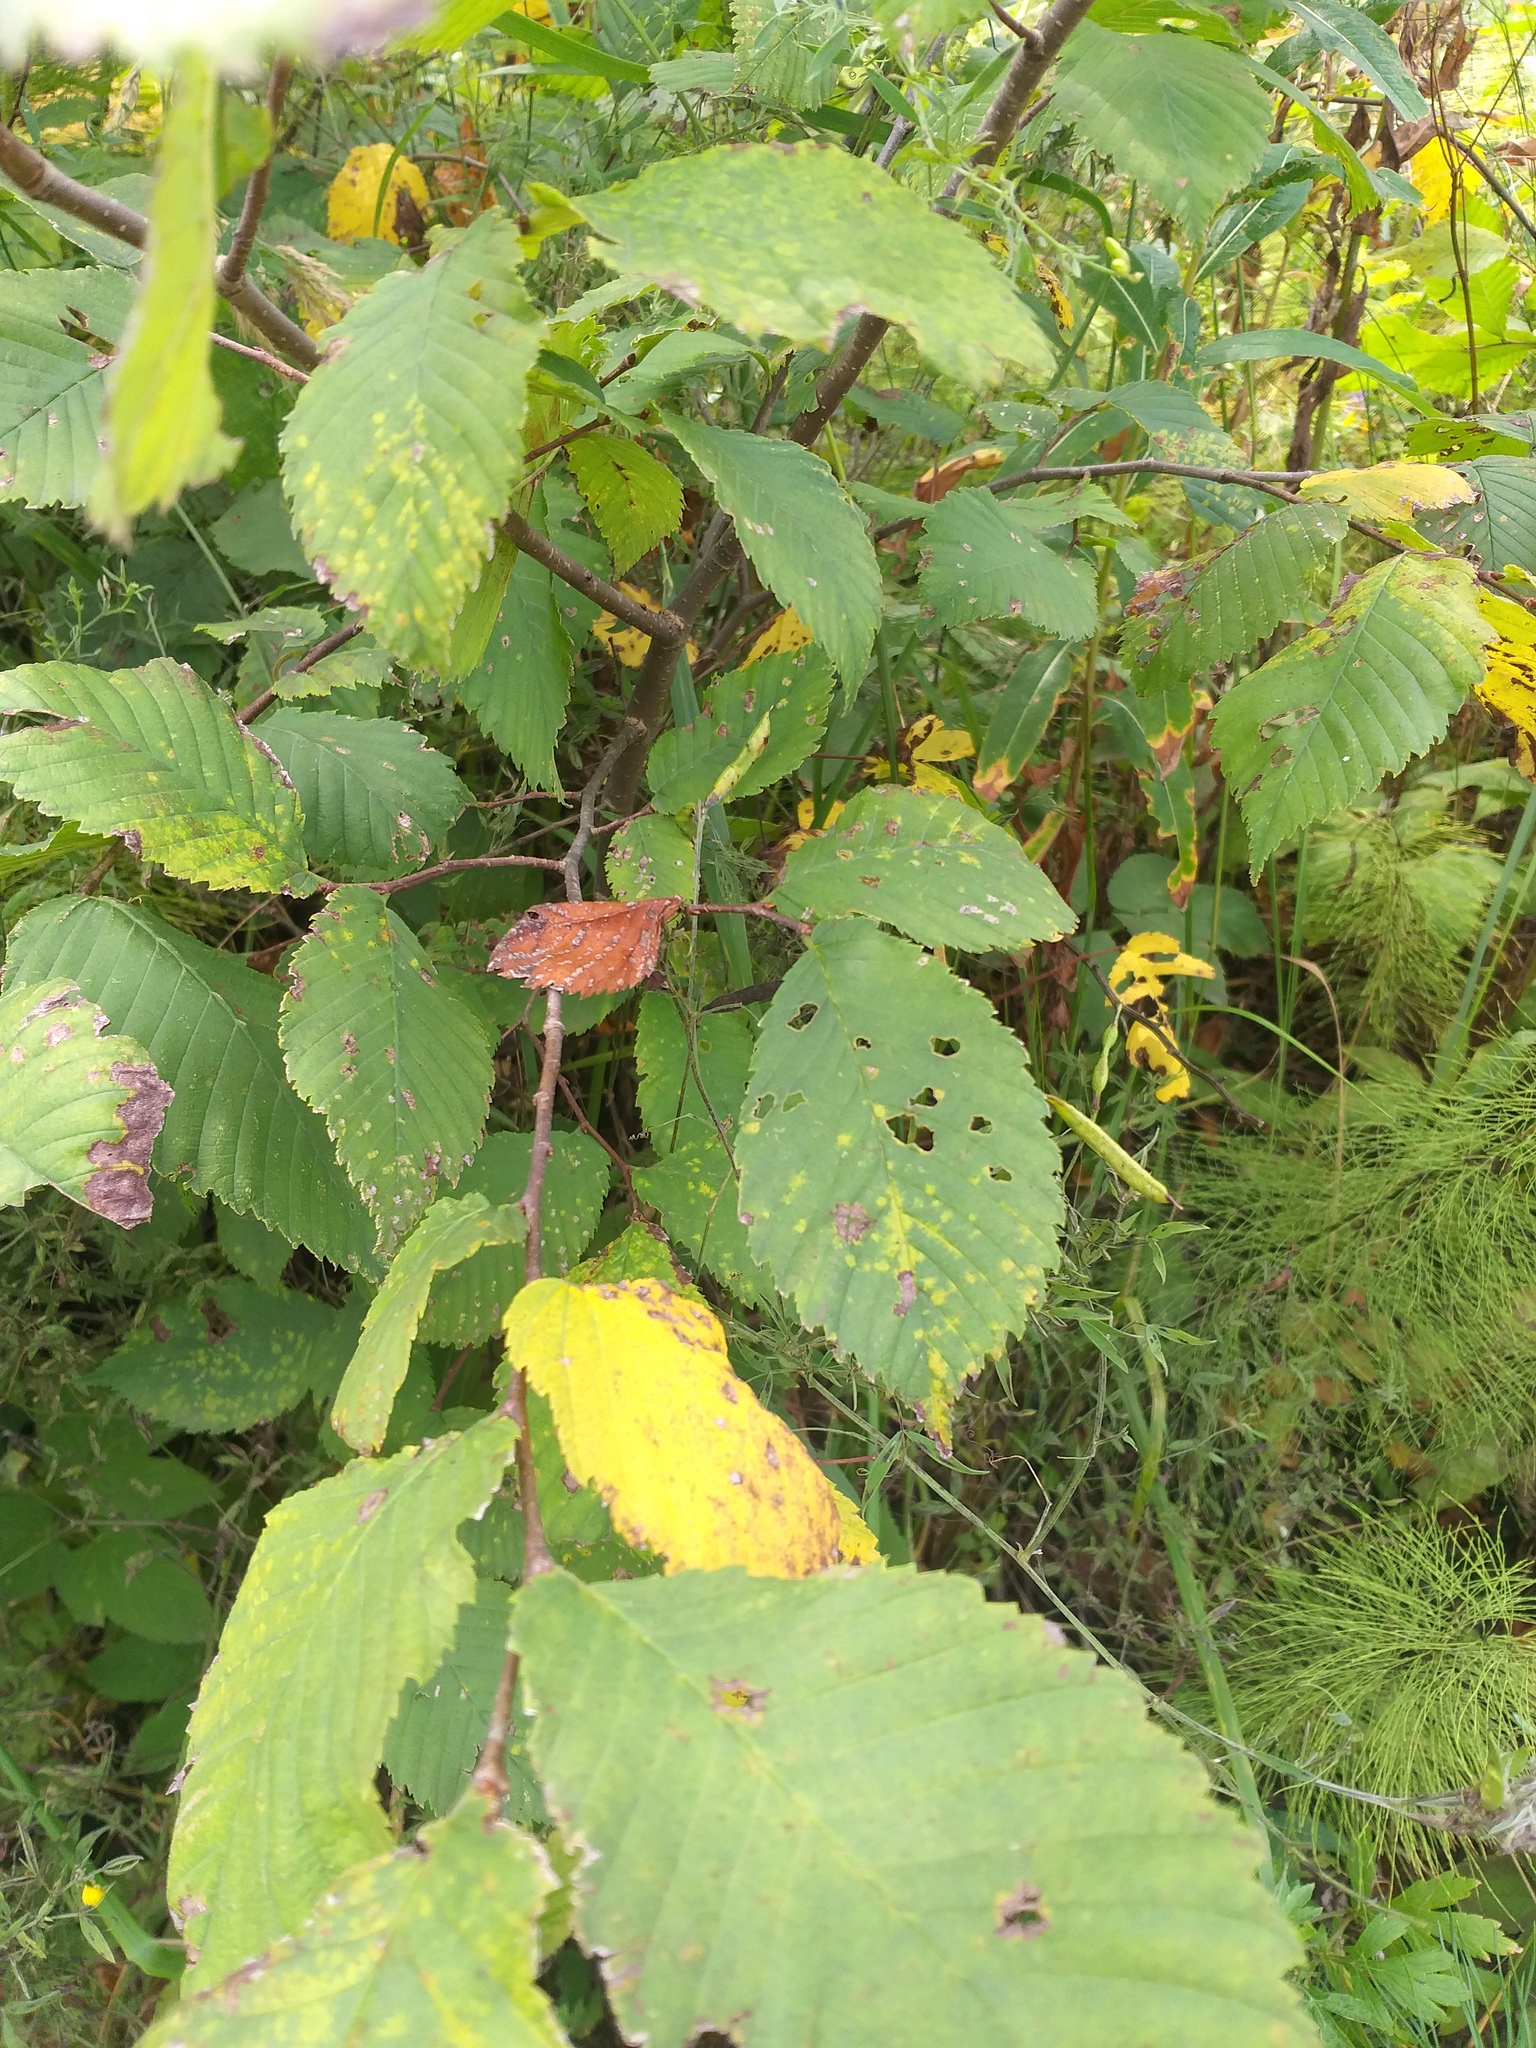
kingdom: Plantae
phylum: Tracheophyta
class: Magnoliopsida
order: Rosales
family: Ulmaceae
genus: Ulmus
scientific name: Ulmus laevis
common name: European white-elm
